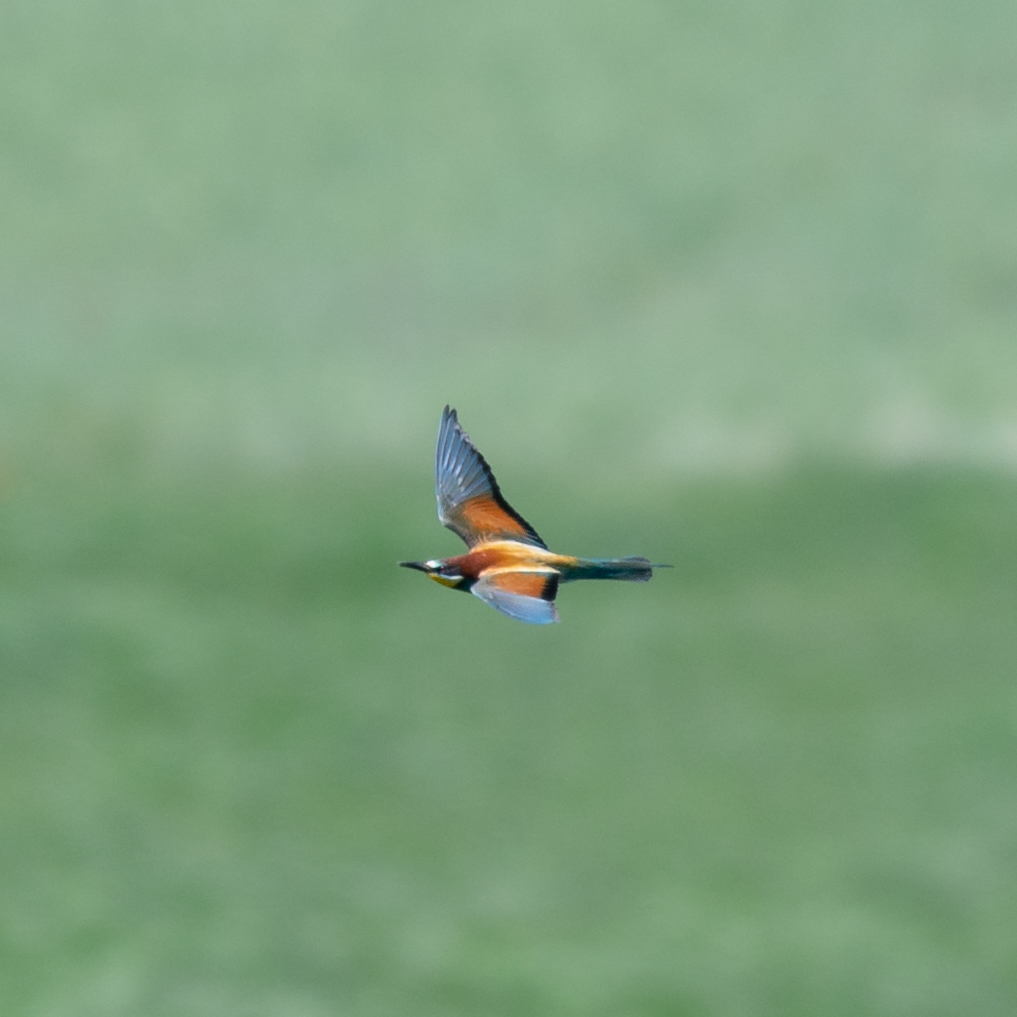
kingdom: Animalia
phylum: Chordata
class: Aves
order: Coraciiformes
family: Meropidae
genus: Merops
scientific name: Merops apiaster
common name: European bee-eater
